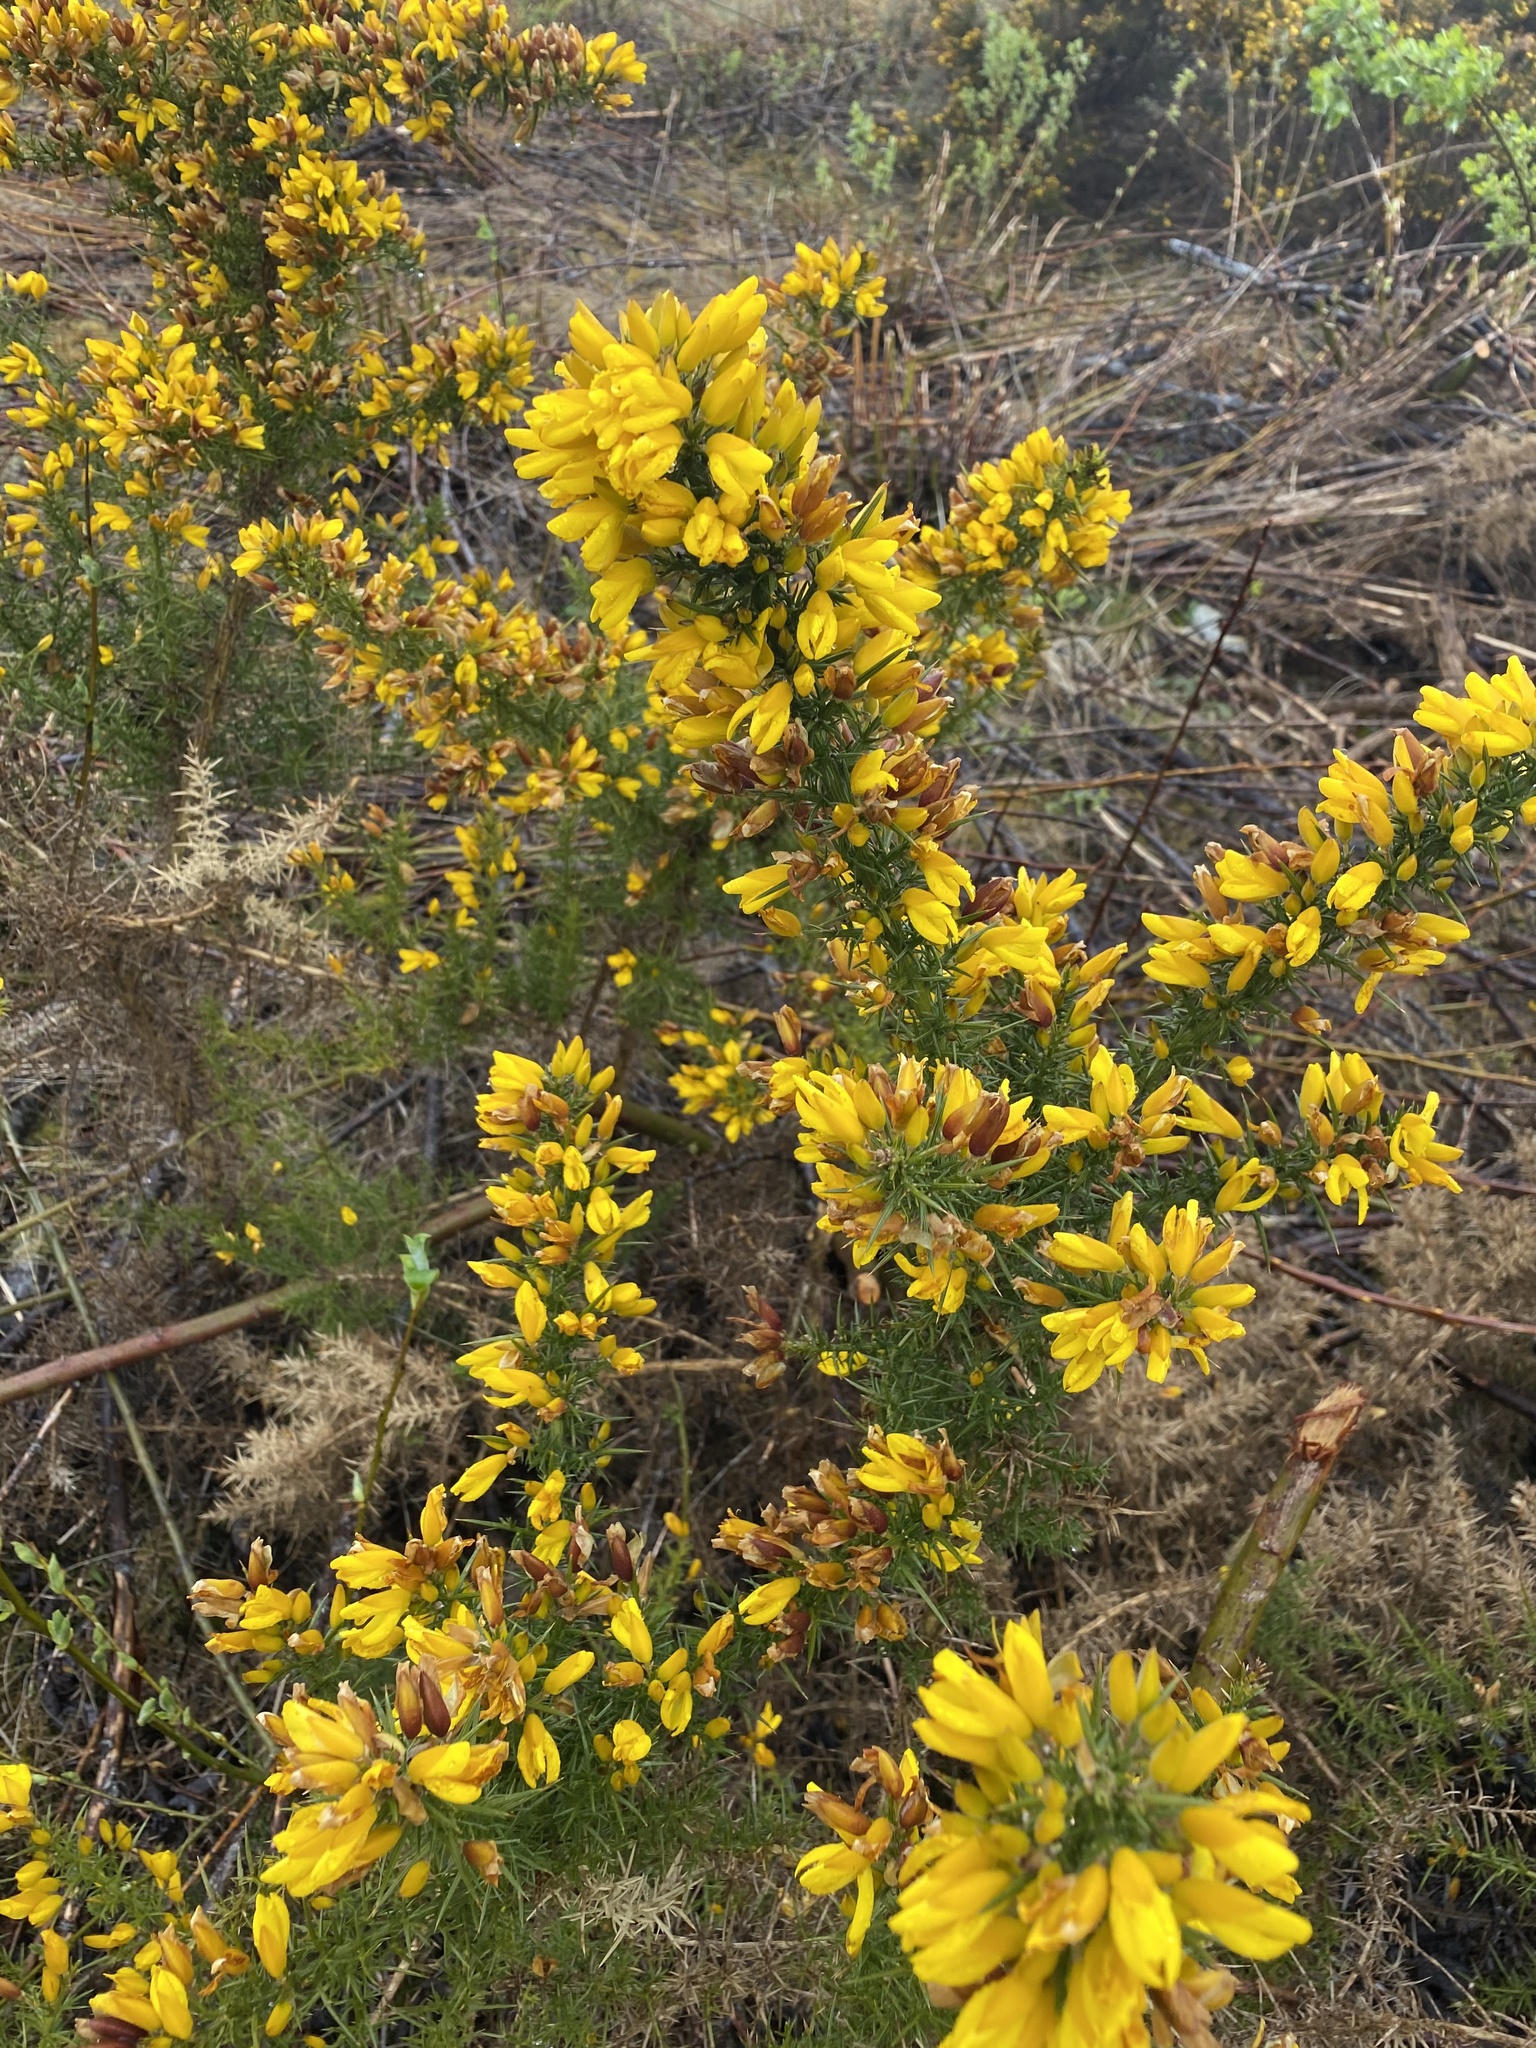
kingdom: Plantae
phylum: Tracheophyta
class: Magnoliopsida
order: Fabales
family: Fabaceae
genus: Ulex
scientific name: Ulex europaeus
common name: Common gorse
